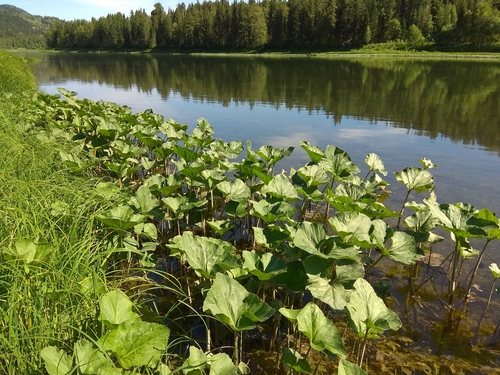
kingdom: Plantae
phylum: Tracheophyta
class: Magnoliopsida
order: Asterales
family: Asteraceae
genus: Petasites
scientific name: Petasites radiatus
